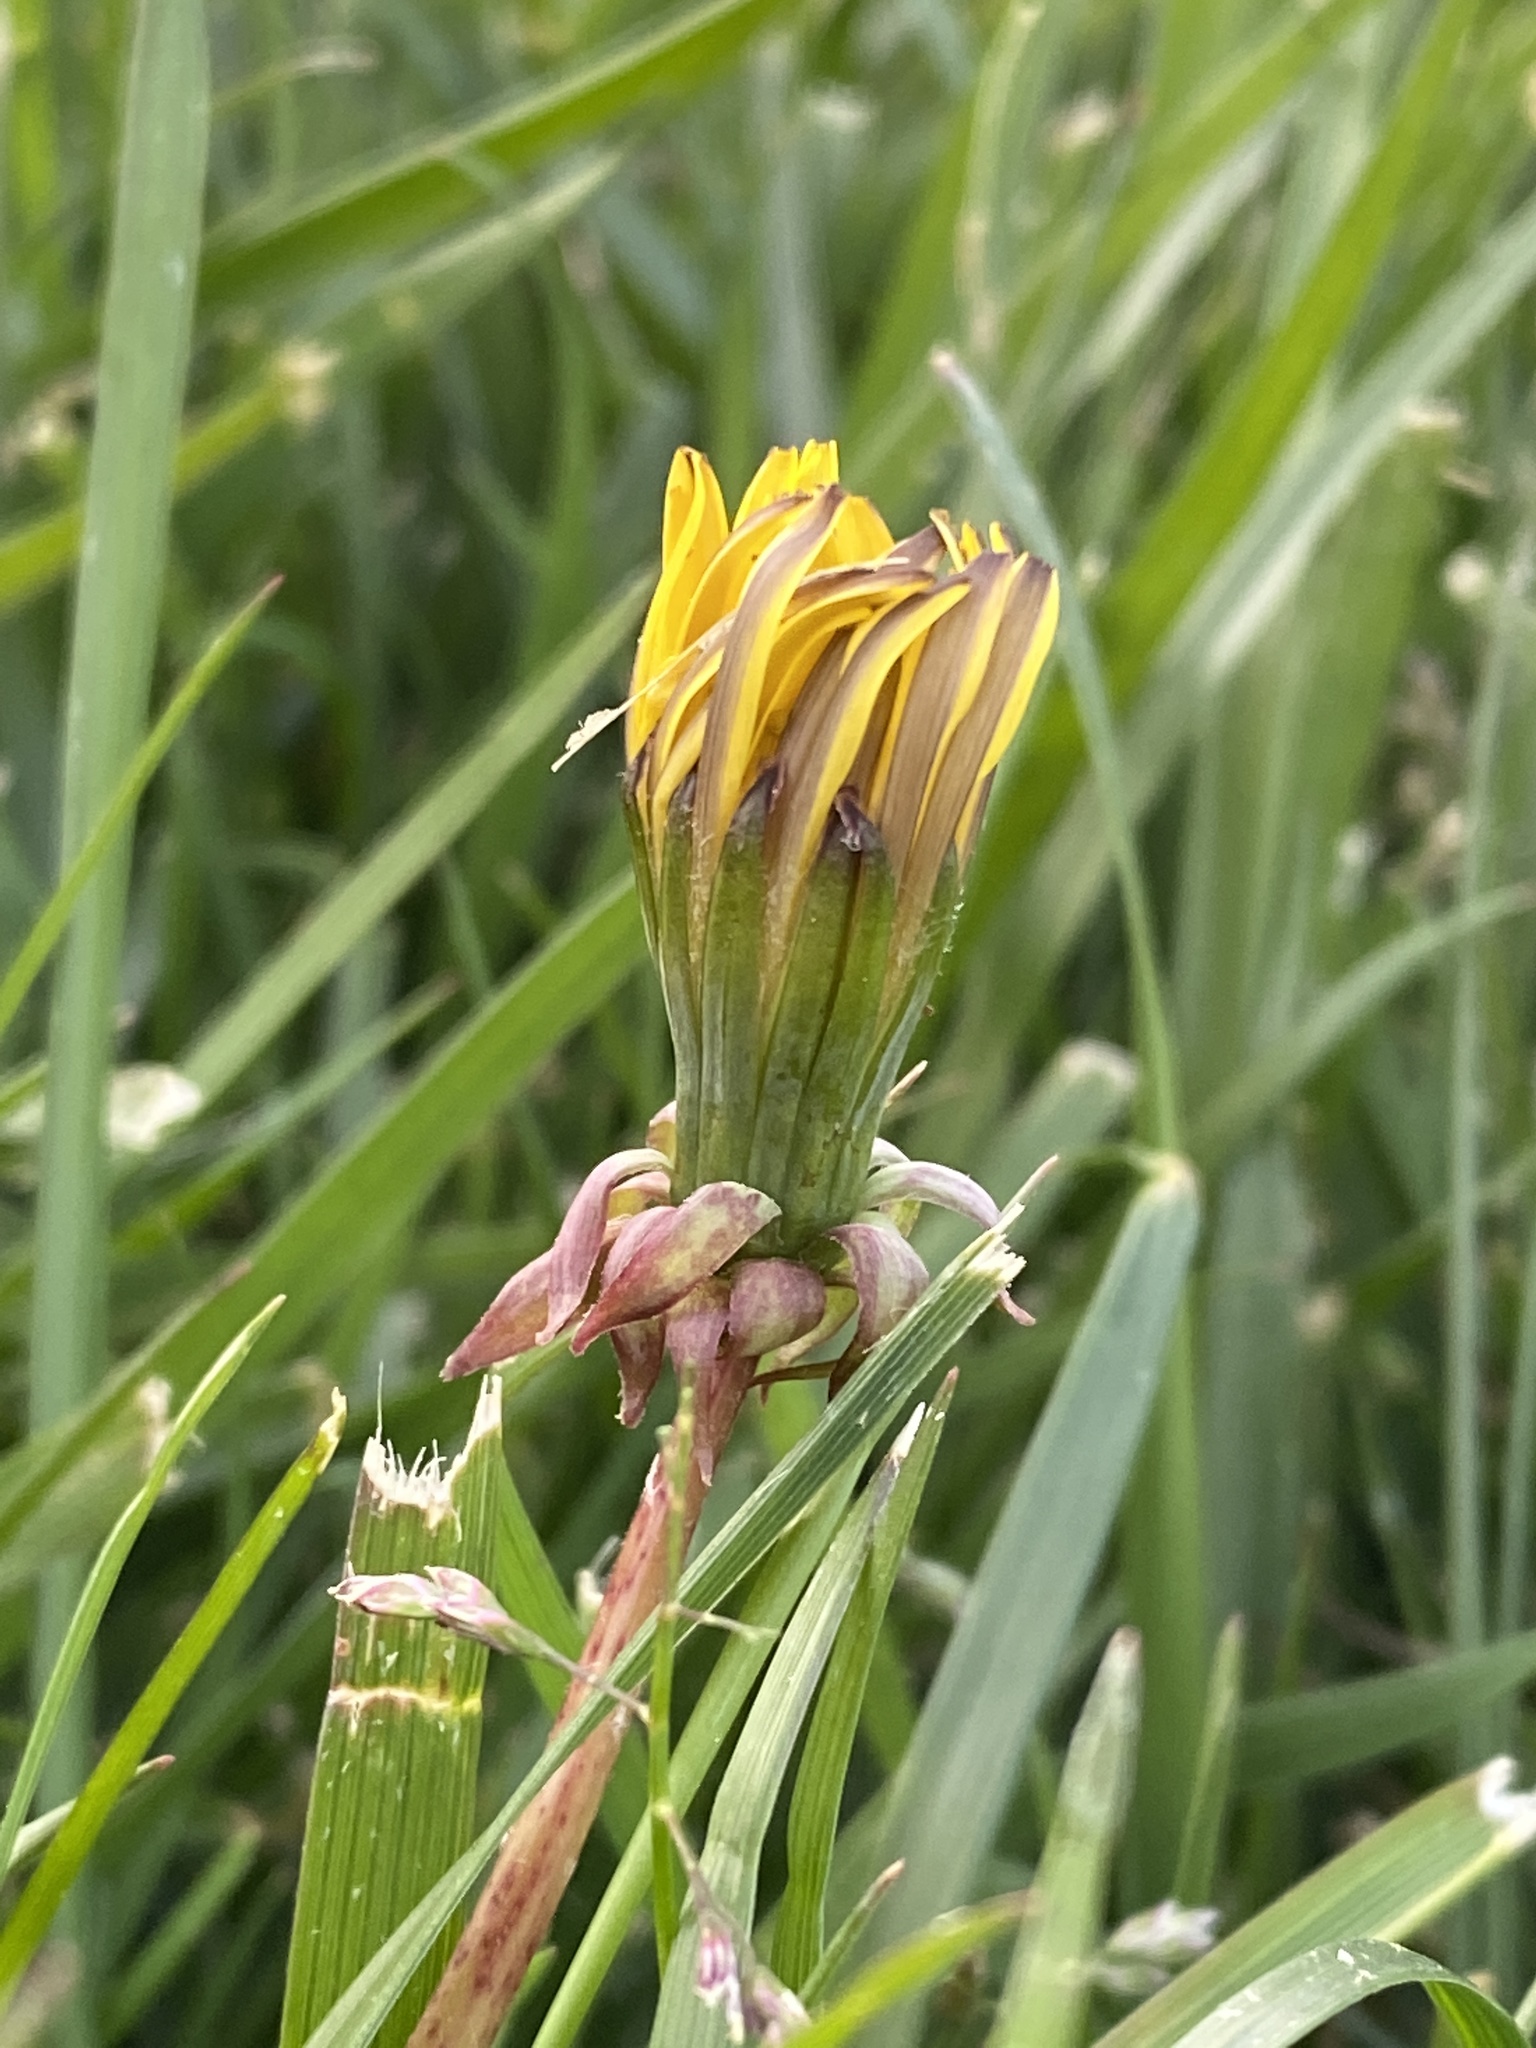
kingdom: Plantae
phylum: Tracheophyta
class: Magnoliopsida
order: Asterales
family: Asteraceae
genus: Taraxacum
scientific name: Taraxacum
